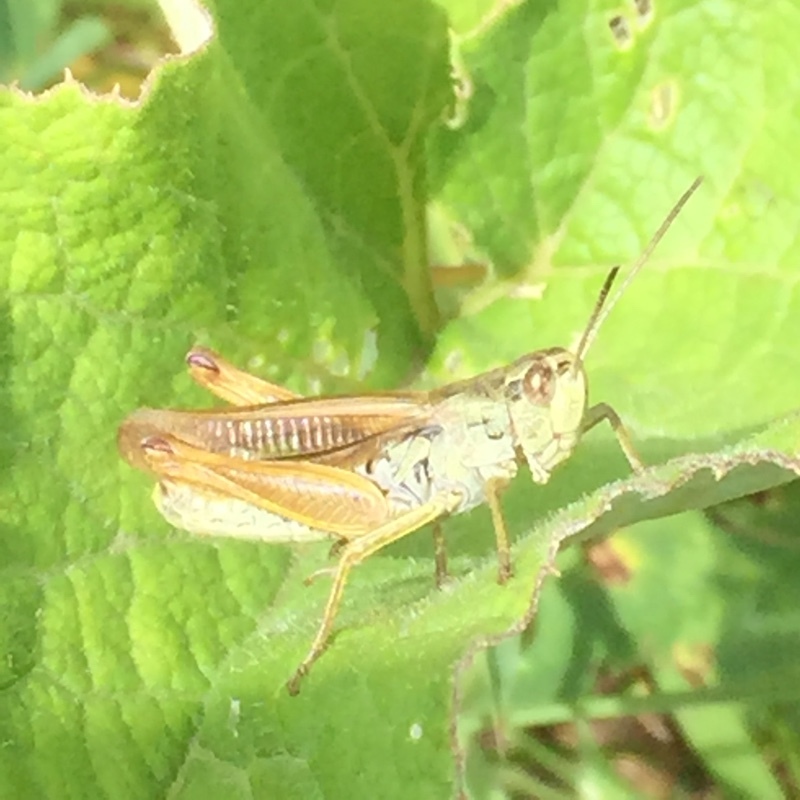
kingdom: Animalia
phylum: Arthropoda
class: Insecta
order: Orthoptera
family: Acrididae
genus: Stauroderus
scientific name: Stauroderus scalaris
